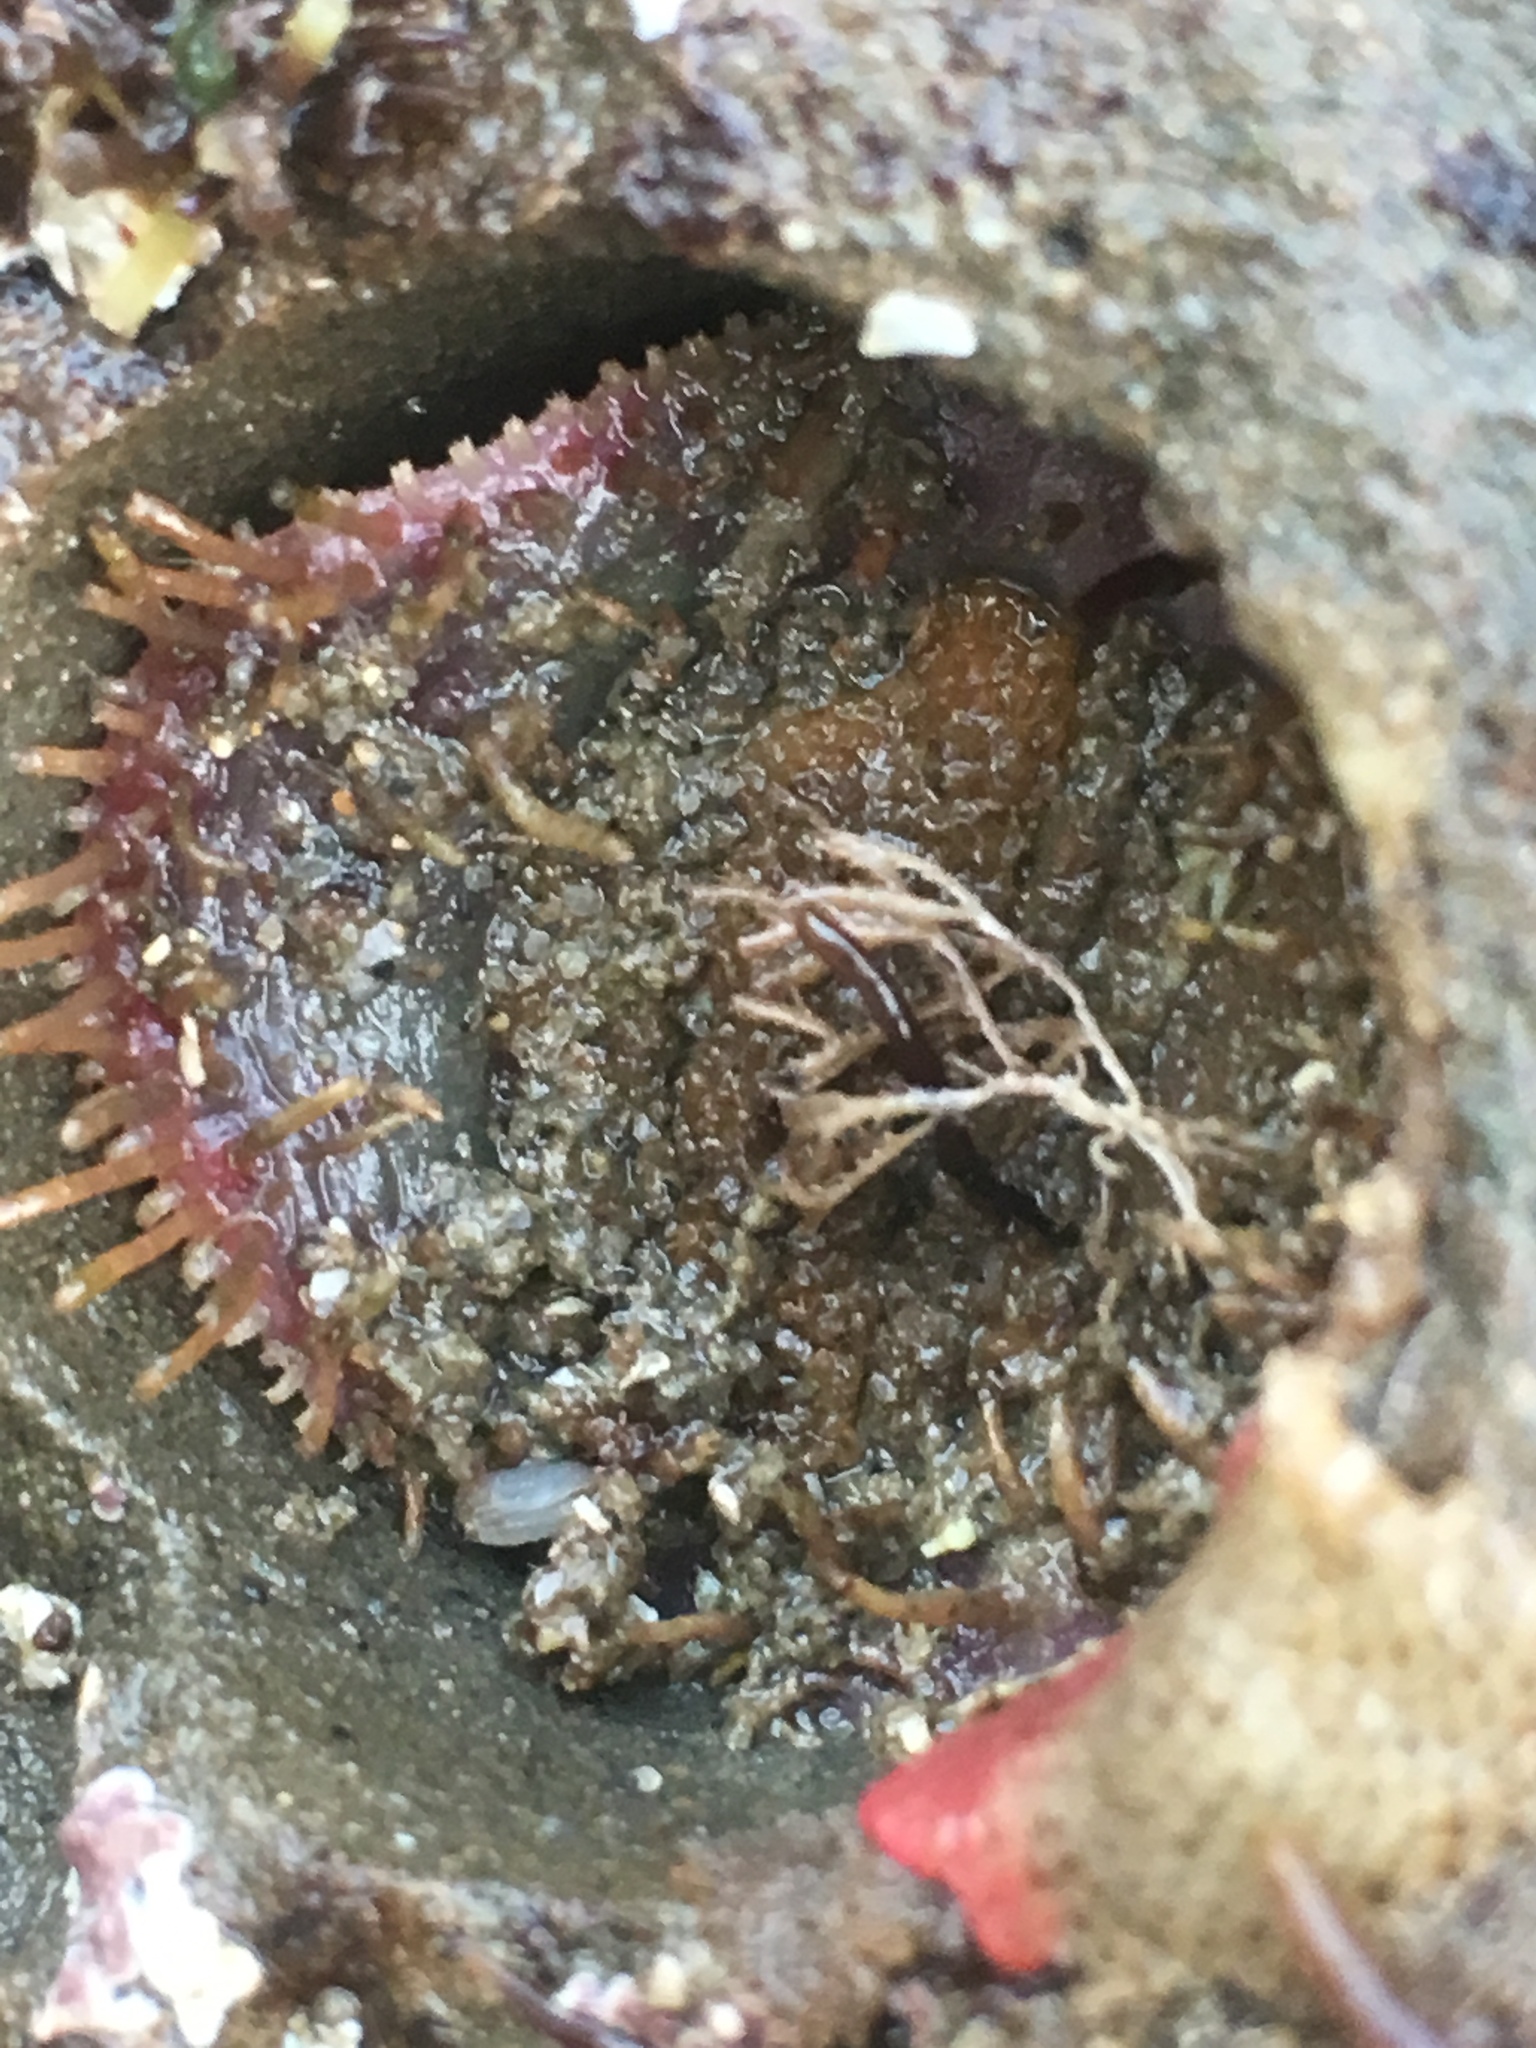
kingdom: Animalia
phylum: Mollusca
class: Polyplacophora
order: Chitonida
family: Mopaliidae
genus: Placiphorella
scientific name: Placiphorella velata
